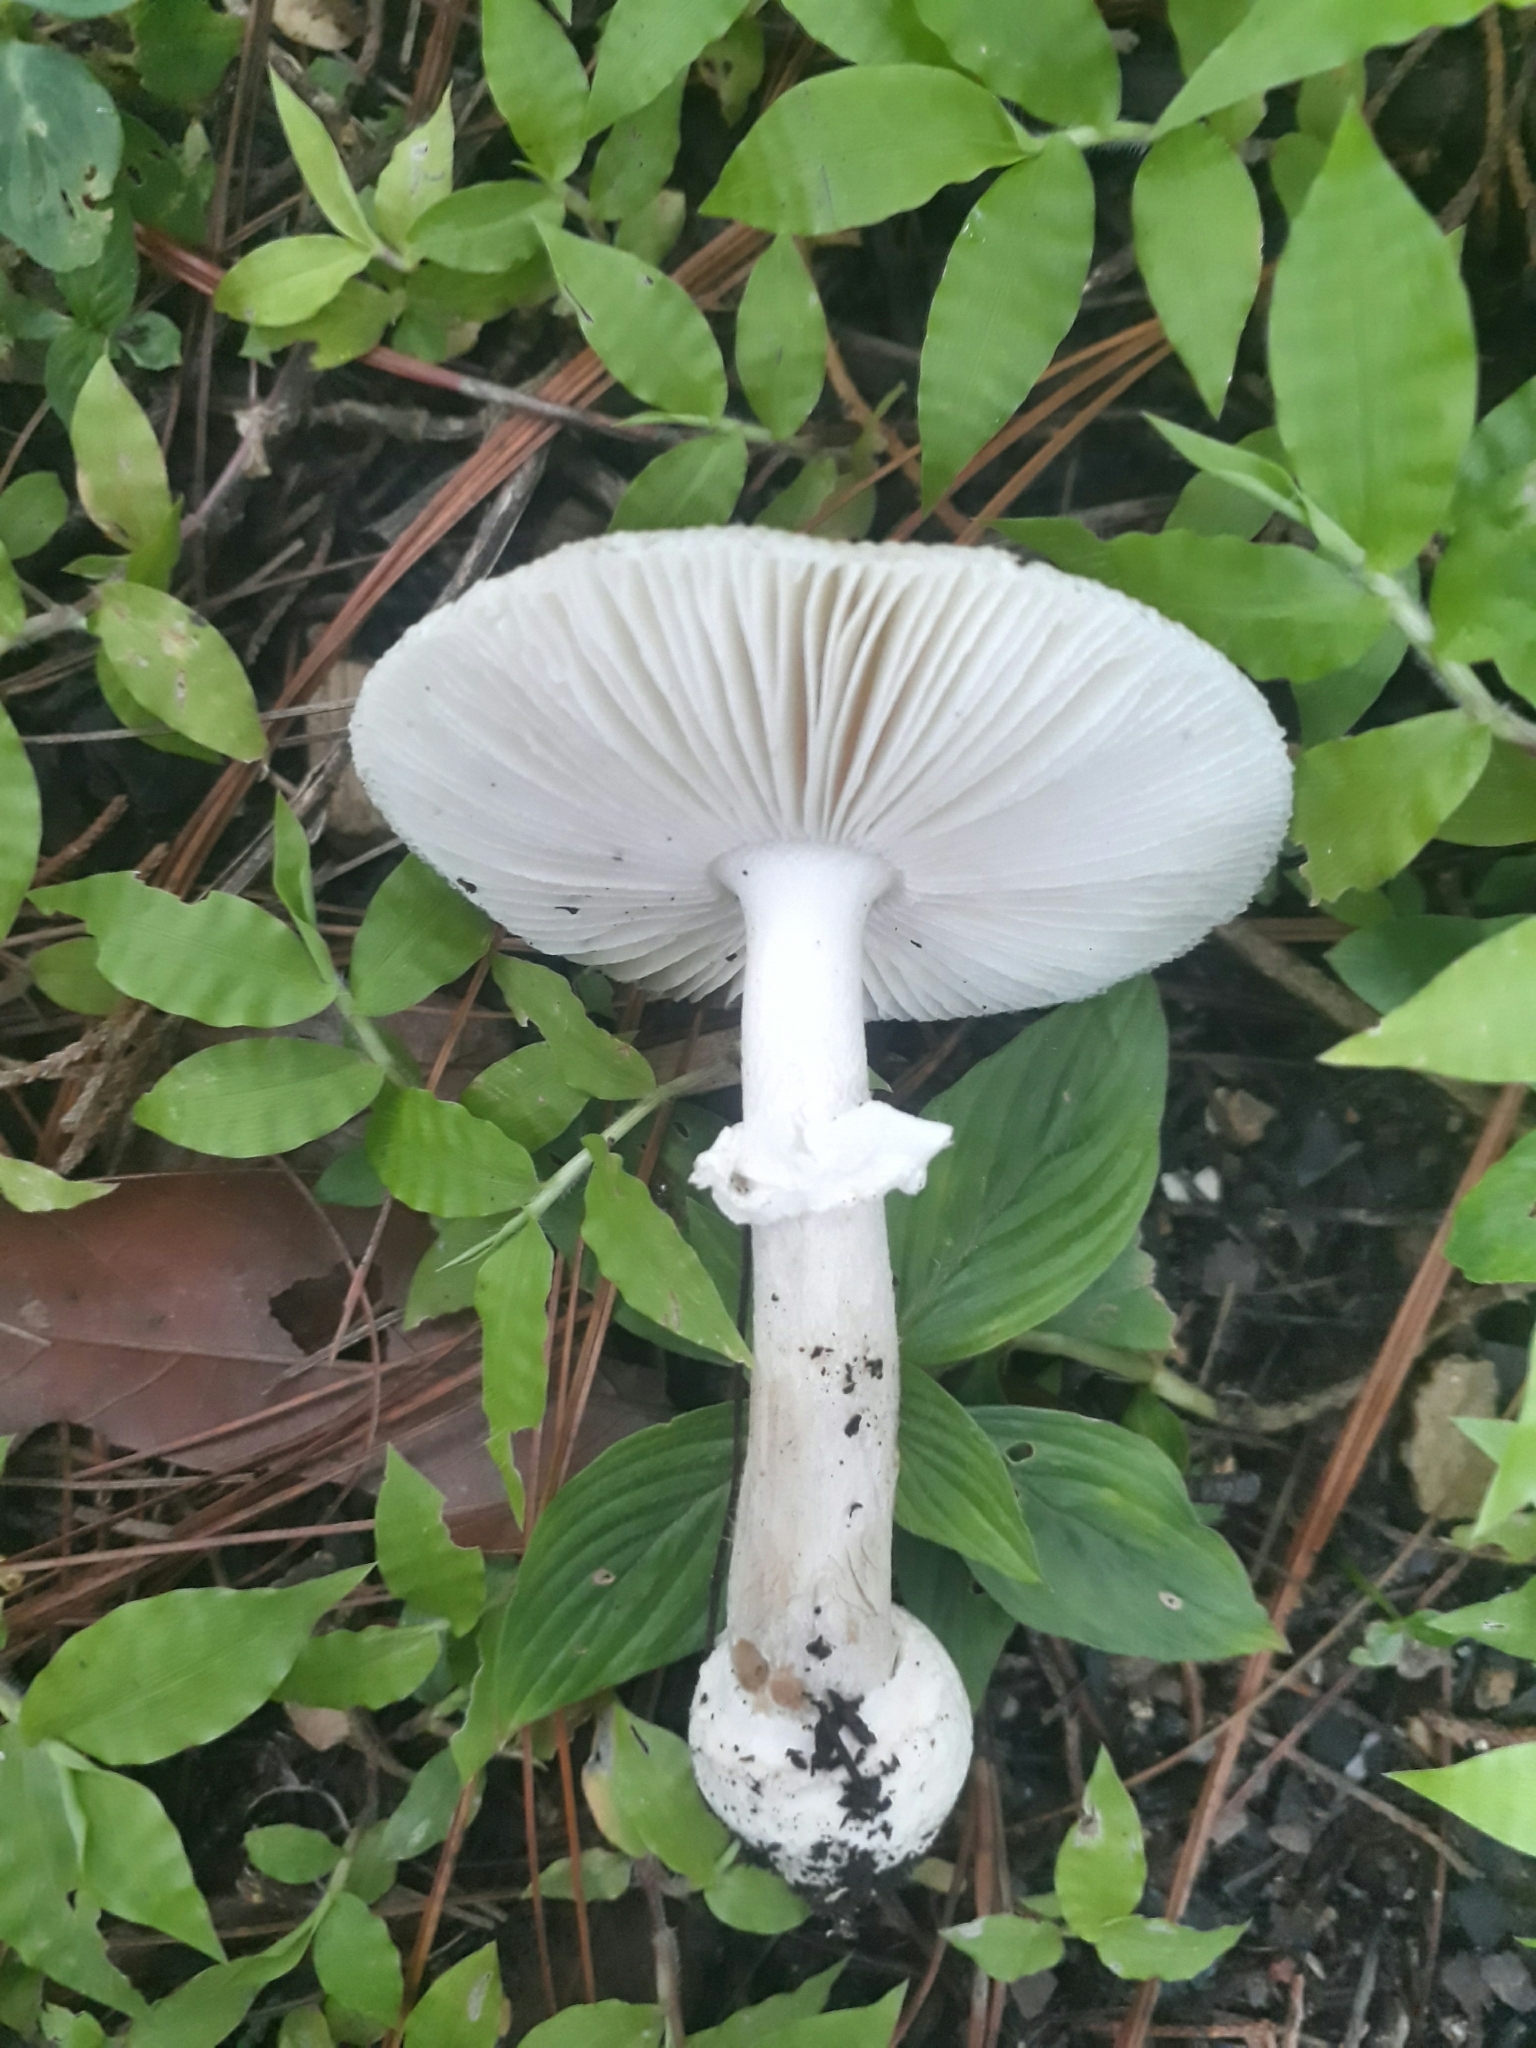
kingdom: Fungi
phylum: Basidiomycota
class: Agaricomycetes
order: Agaricales
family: Amanitaceae
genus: Amanita
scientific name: Amanita farinosa
